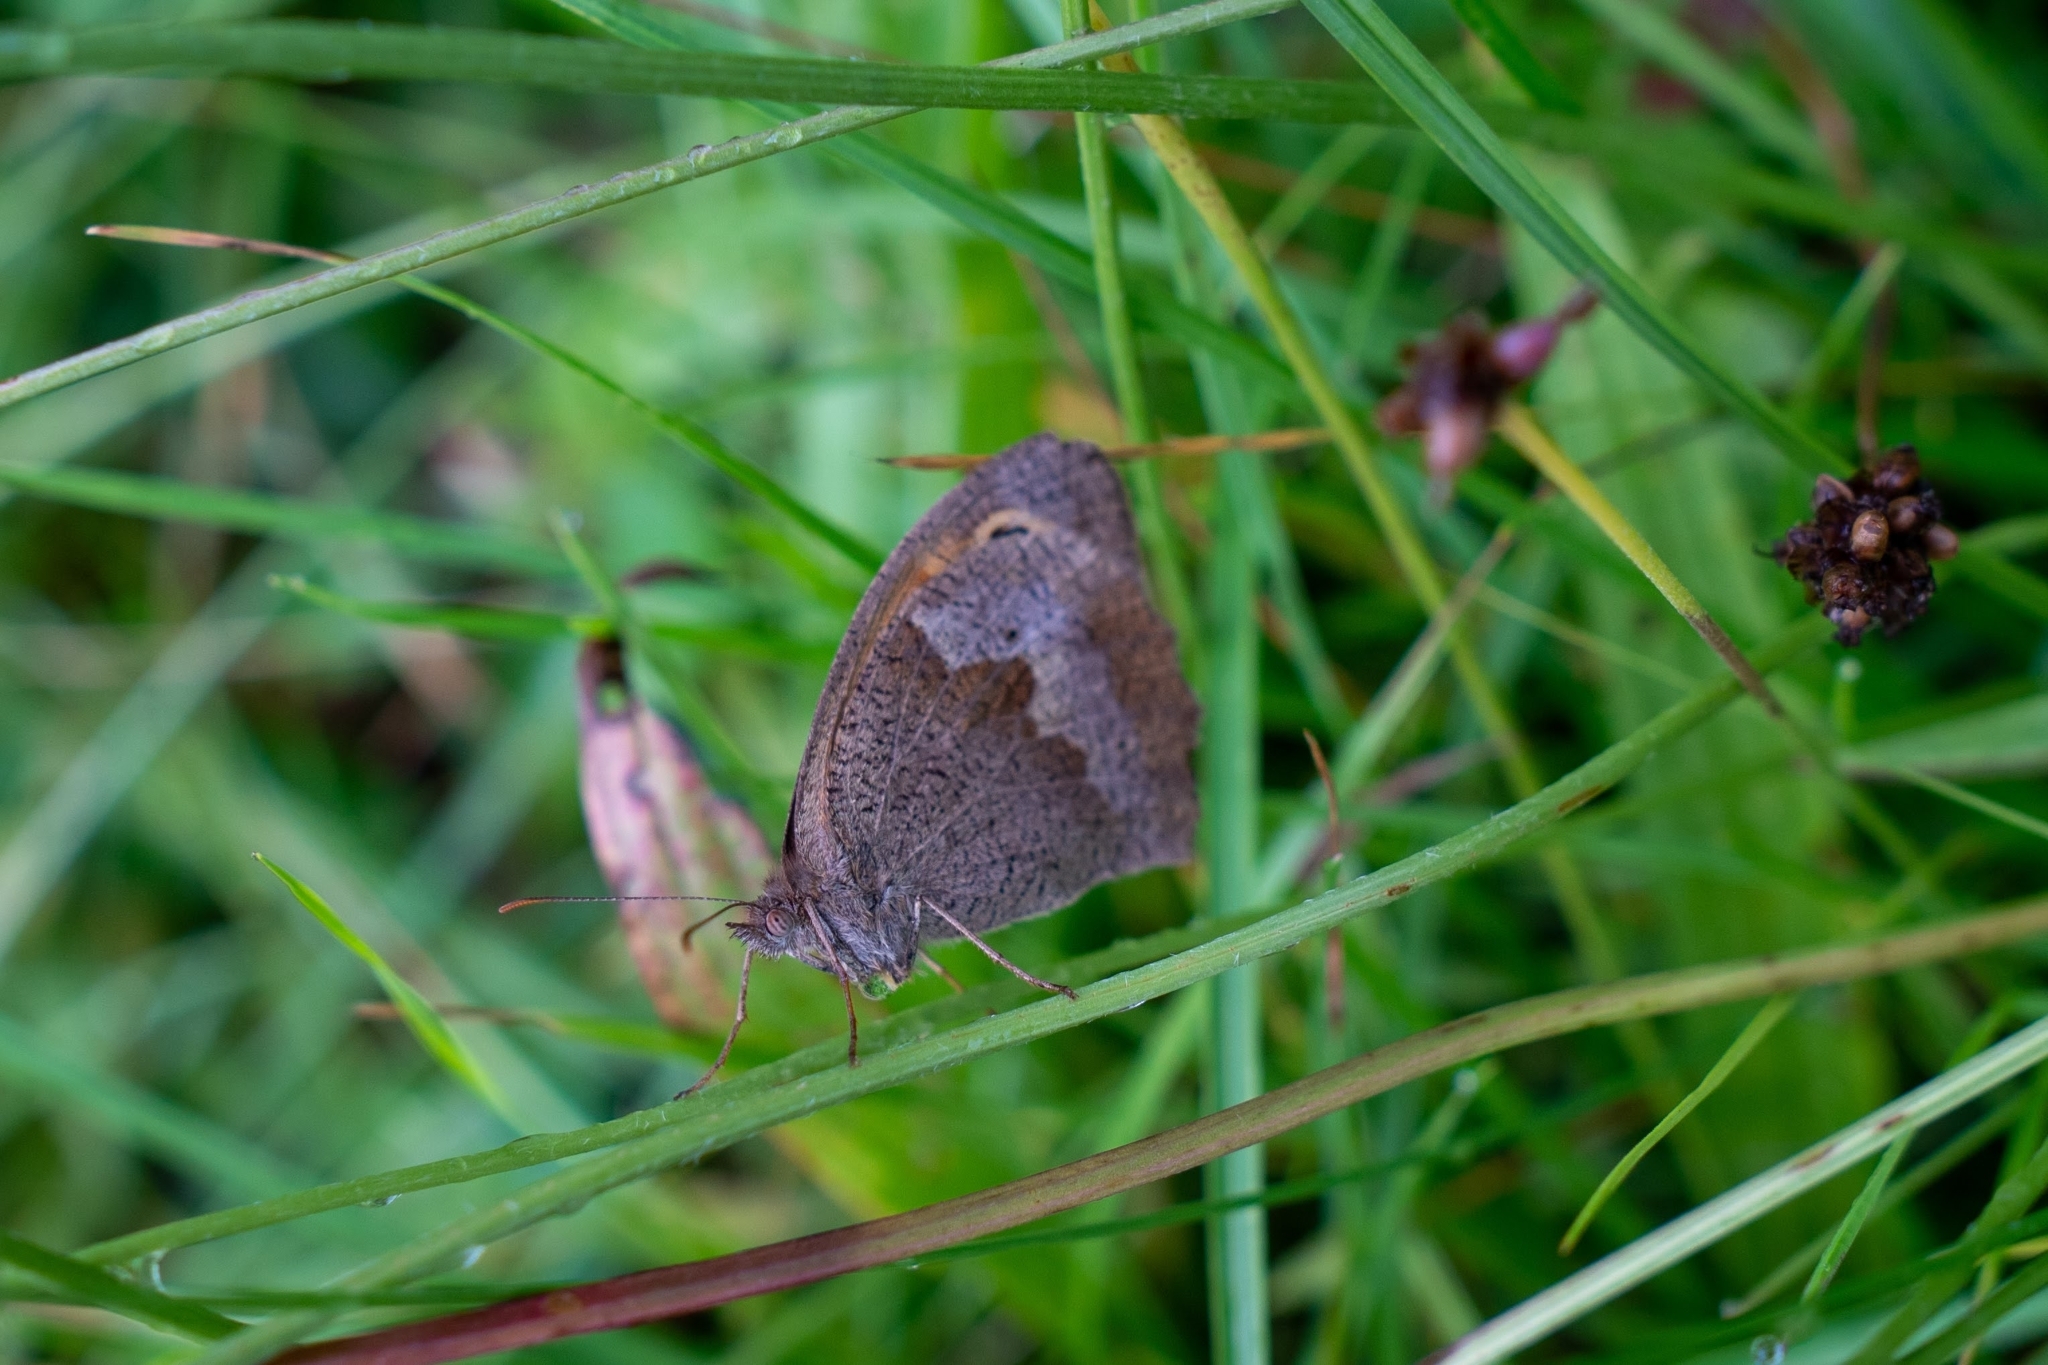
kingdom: Animalia
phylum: Arthropoda
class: Insecta
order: Lepidoptera
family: Nymphalidae
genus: Maniola
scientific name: Maniola jurtina
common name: Meadow brown
